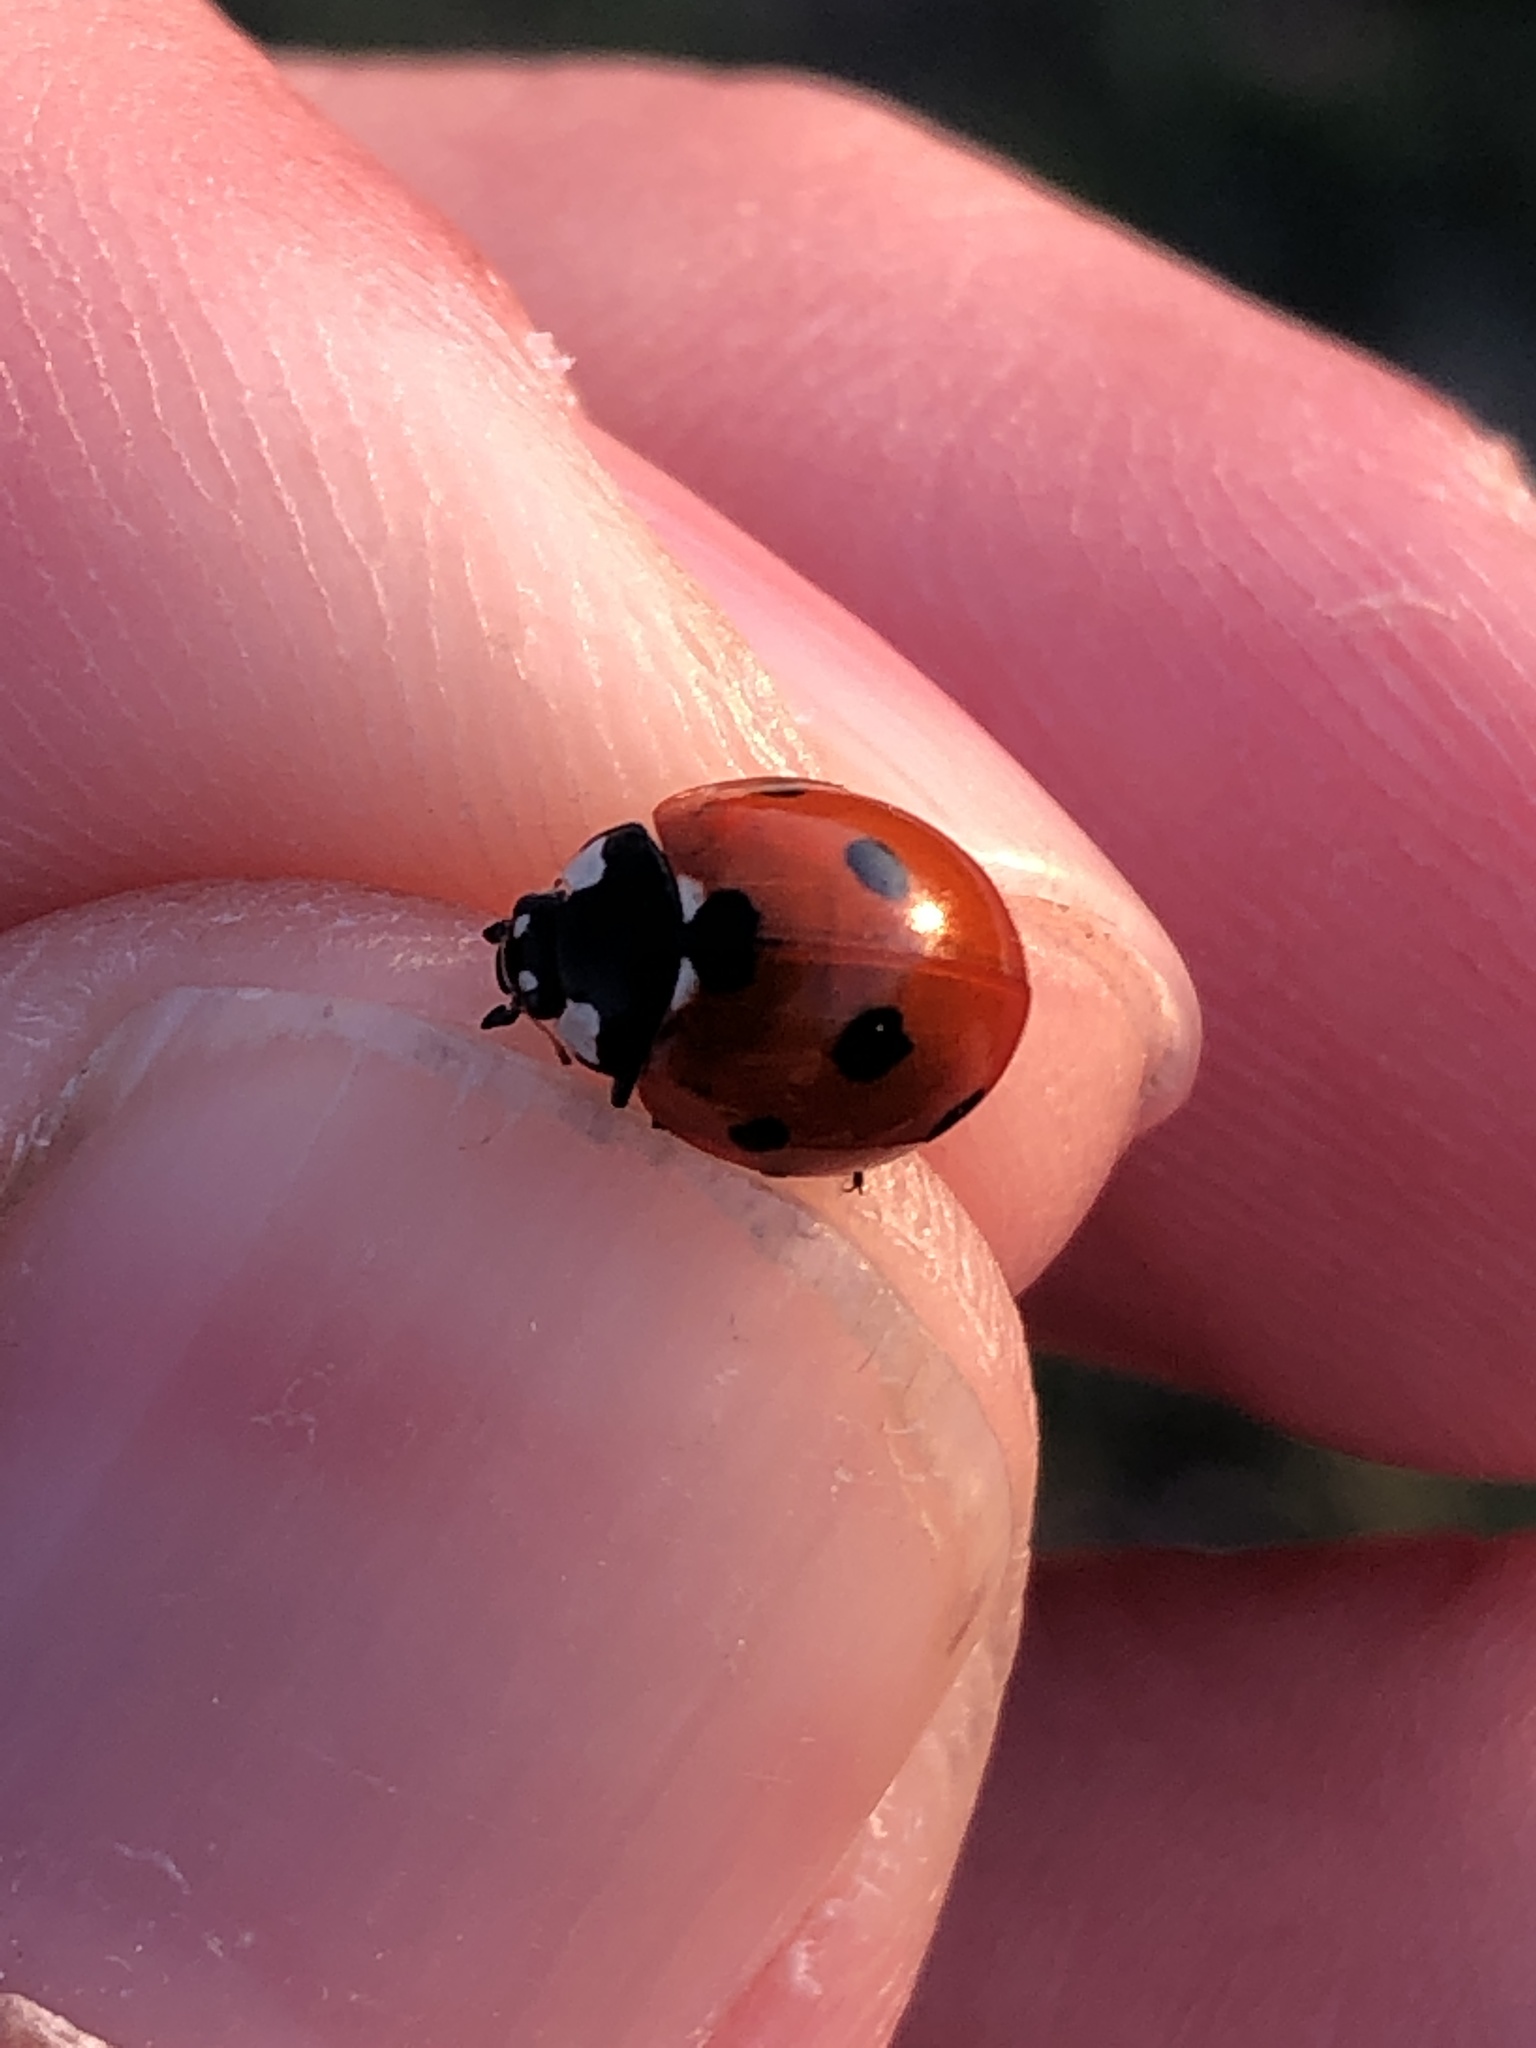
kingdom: Animalia
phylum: Arthropoda
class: Insecta
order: Coleoptera
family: Coccinellidae
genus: Coccinella
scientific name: Coccinella septempunctata
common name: Sevenspotted lady beetle
